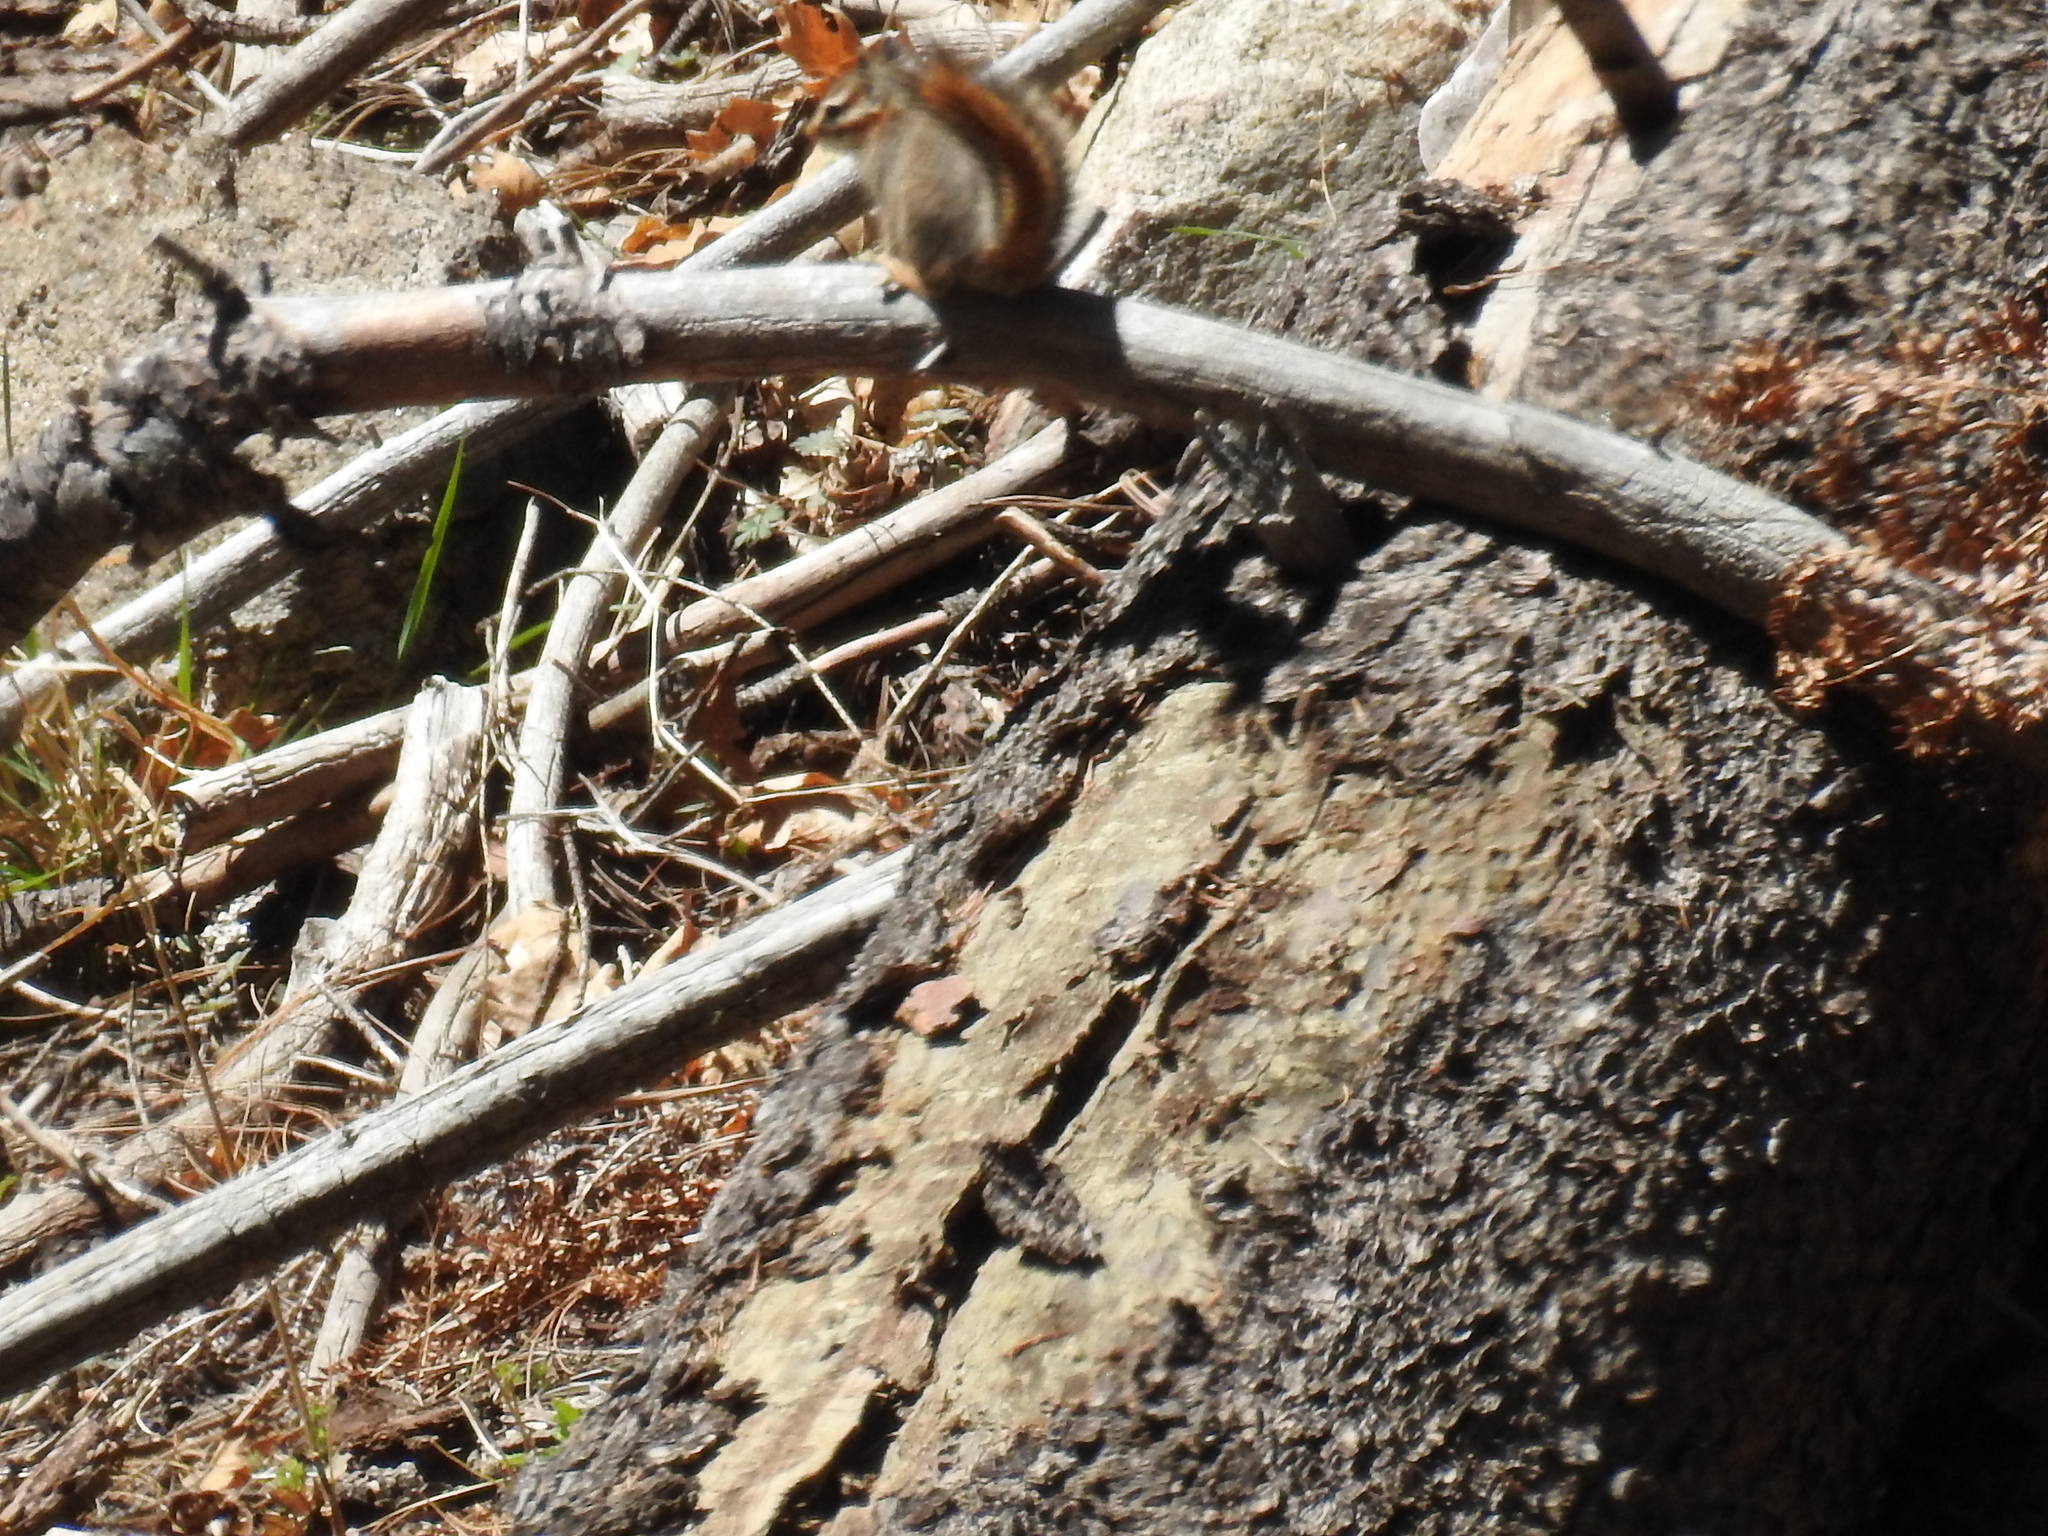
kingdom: Animalia
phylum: Chordata
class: Mammalia
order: Rodentia
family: Sciuridae
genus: Tamias
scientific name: Tamias dorsalis
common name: Cliff chipmunk
